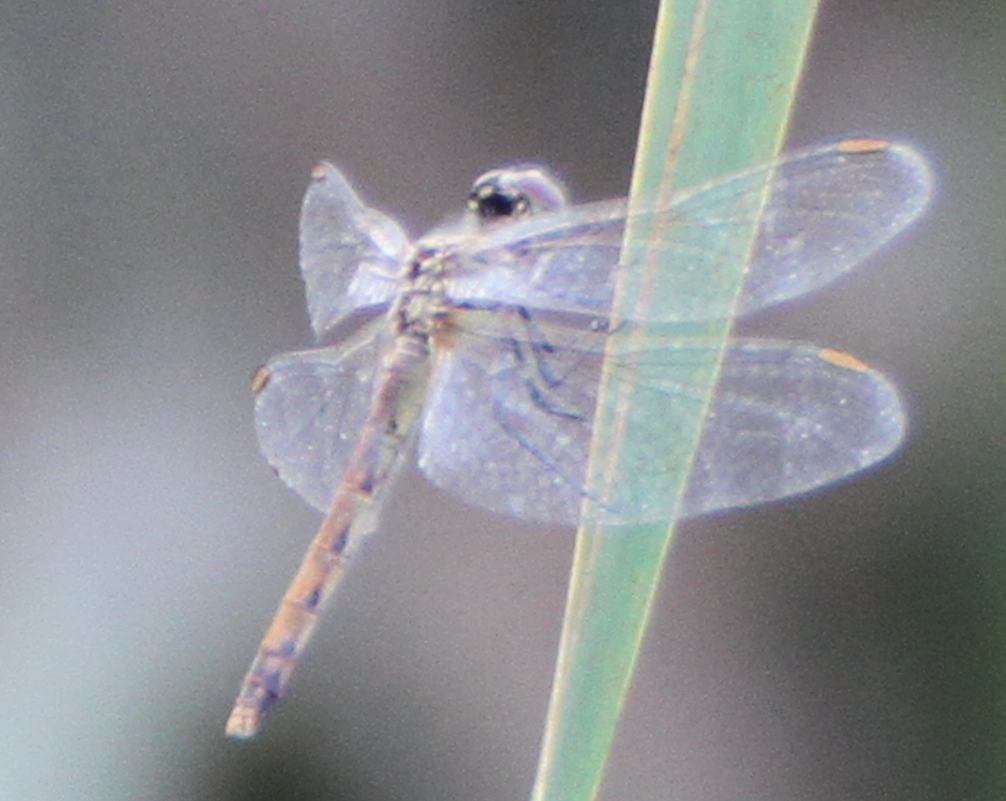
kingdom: Animalia
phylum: Arthropoda
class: Insecta
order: Odonata
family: Libellulidae
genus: Sympetrum
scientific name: Sympetrum depressiusculum
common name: Spotted darter
